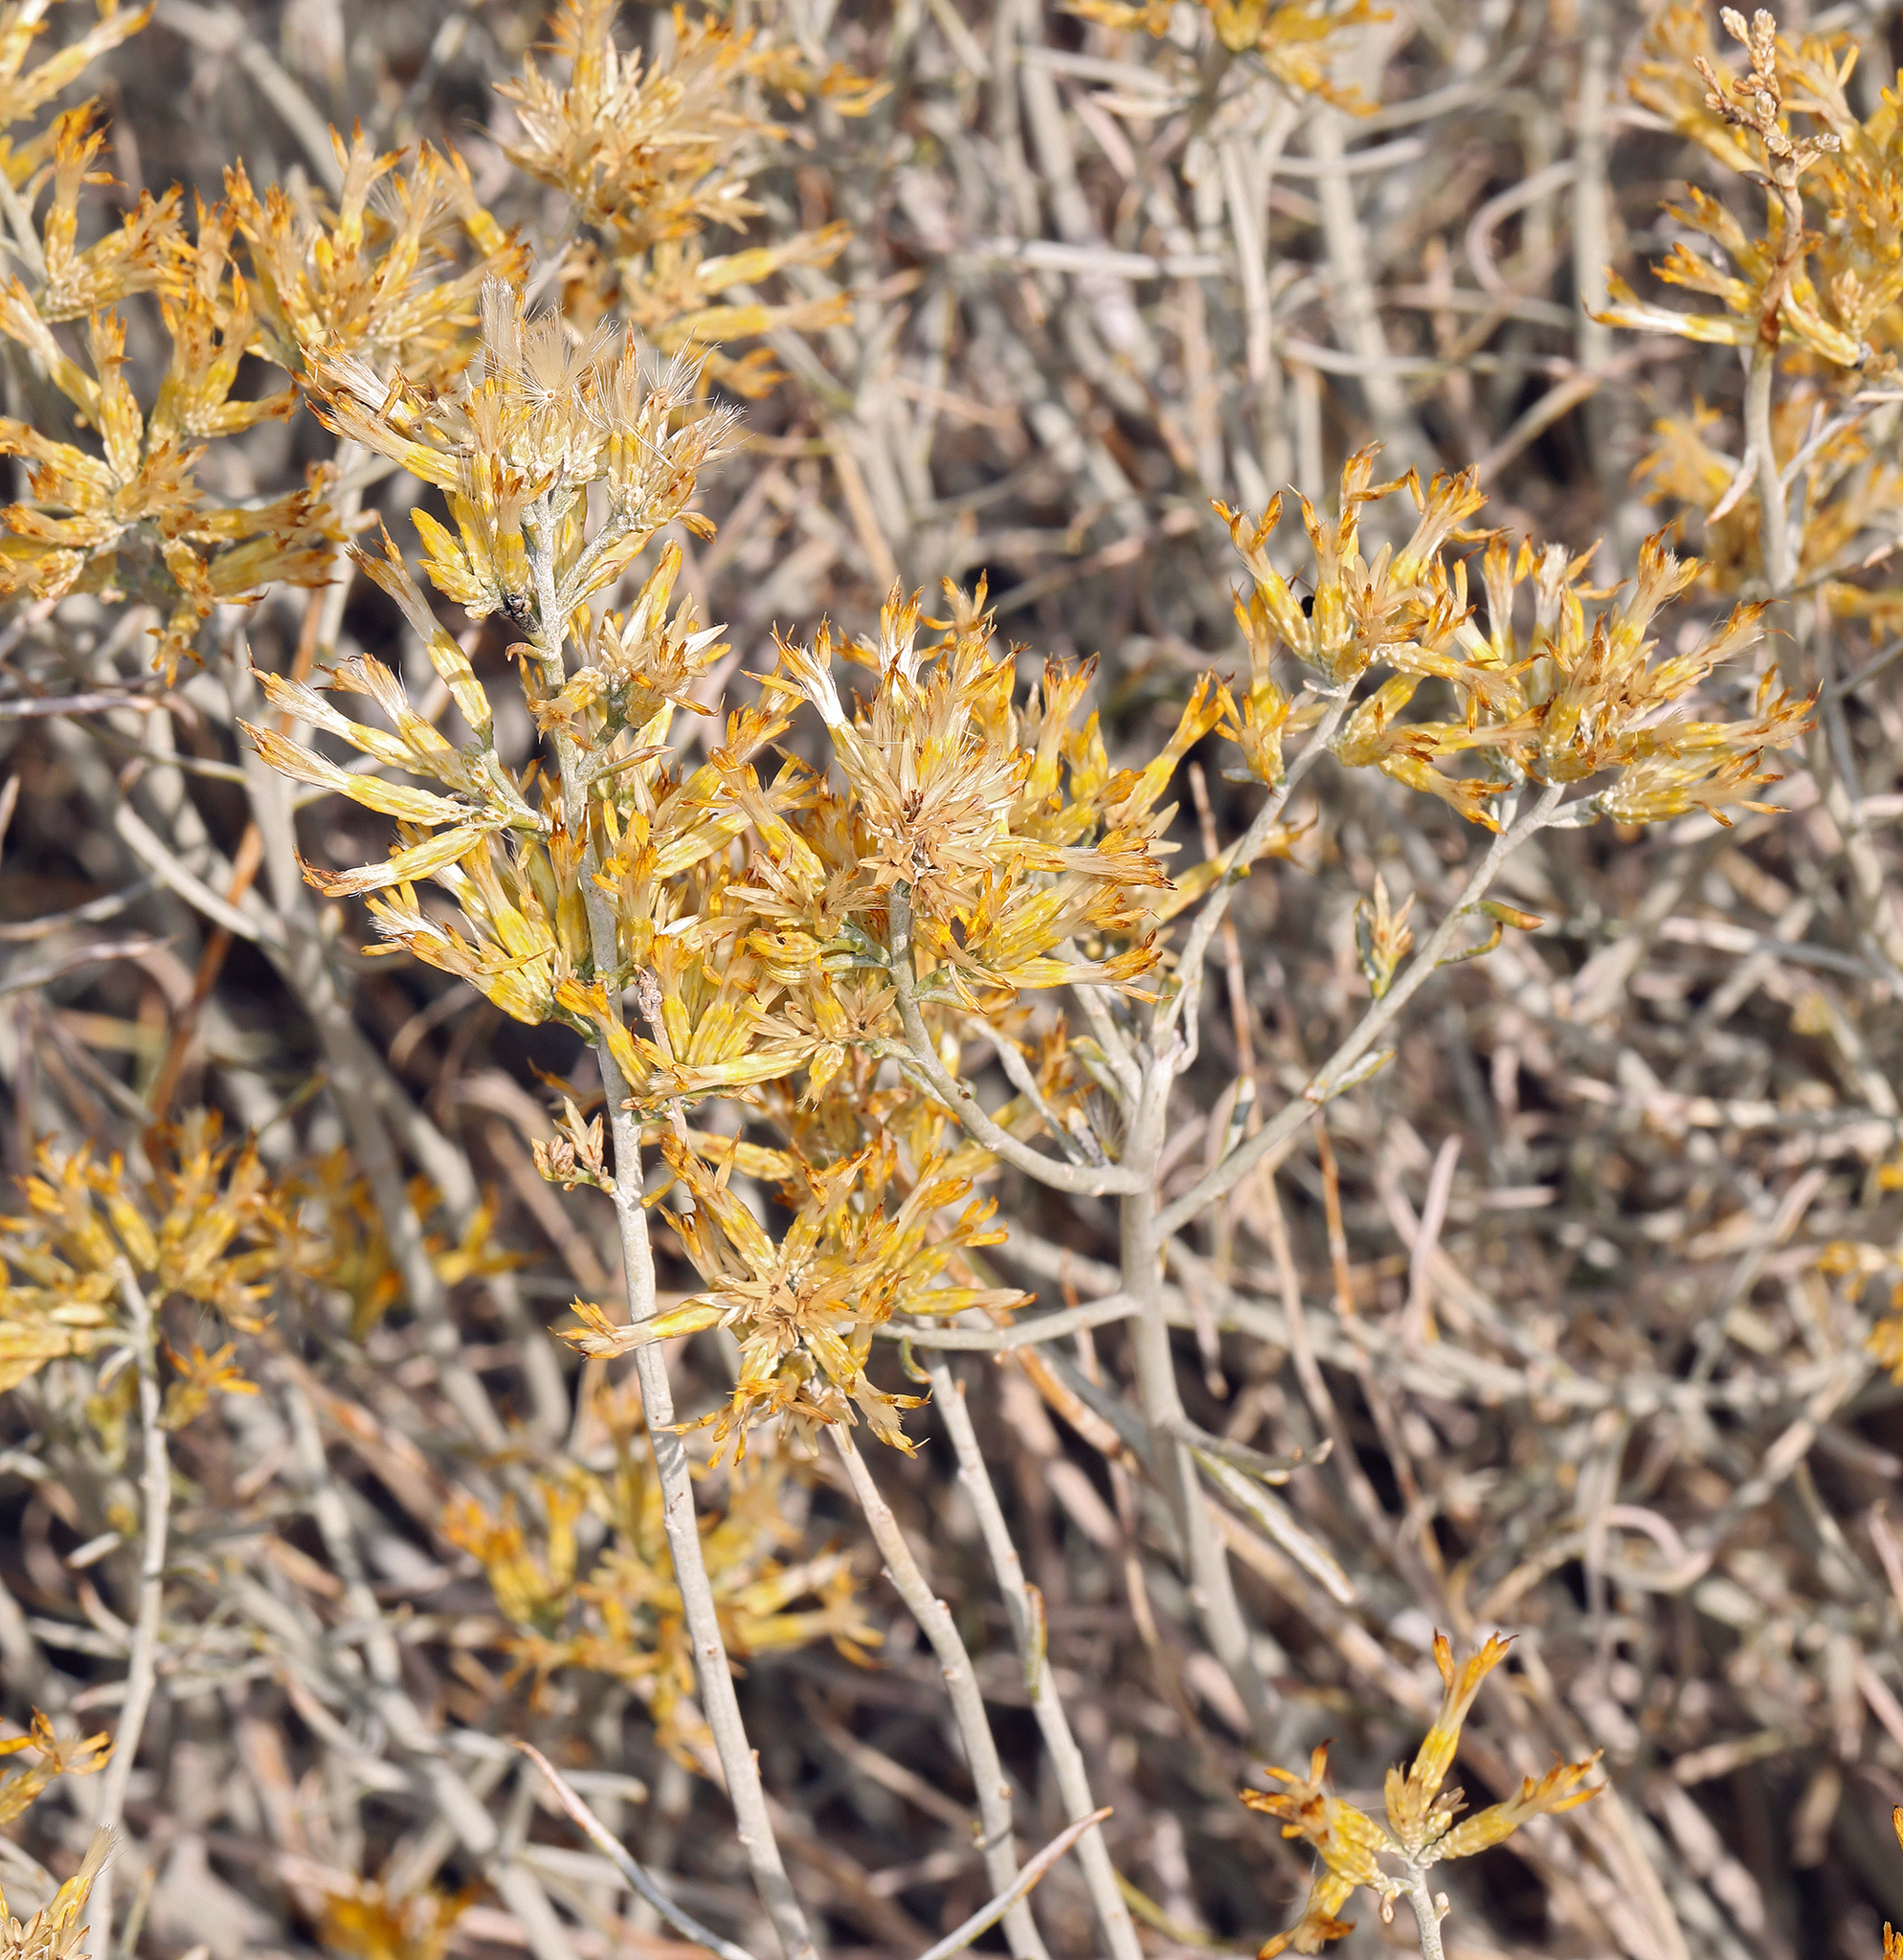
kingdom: Plantae
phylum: Tracheophyta
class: Magnoliopsida
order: Asterales
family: Asteraceae
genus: Ericameria
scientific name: Ericameria nauseosa
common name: Rubber rabbitbrush
